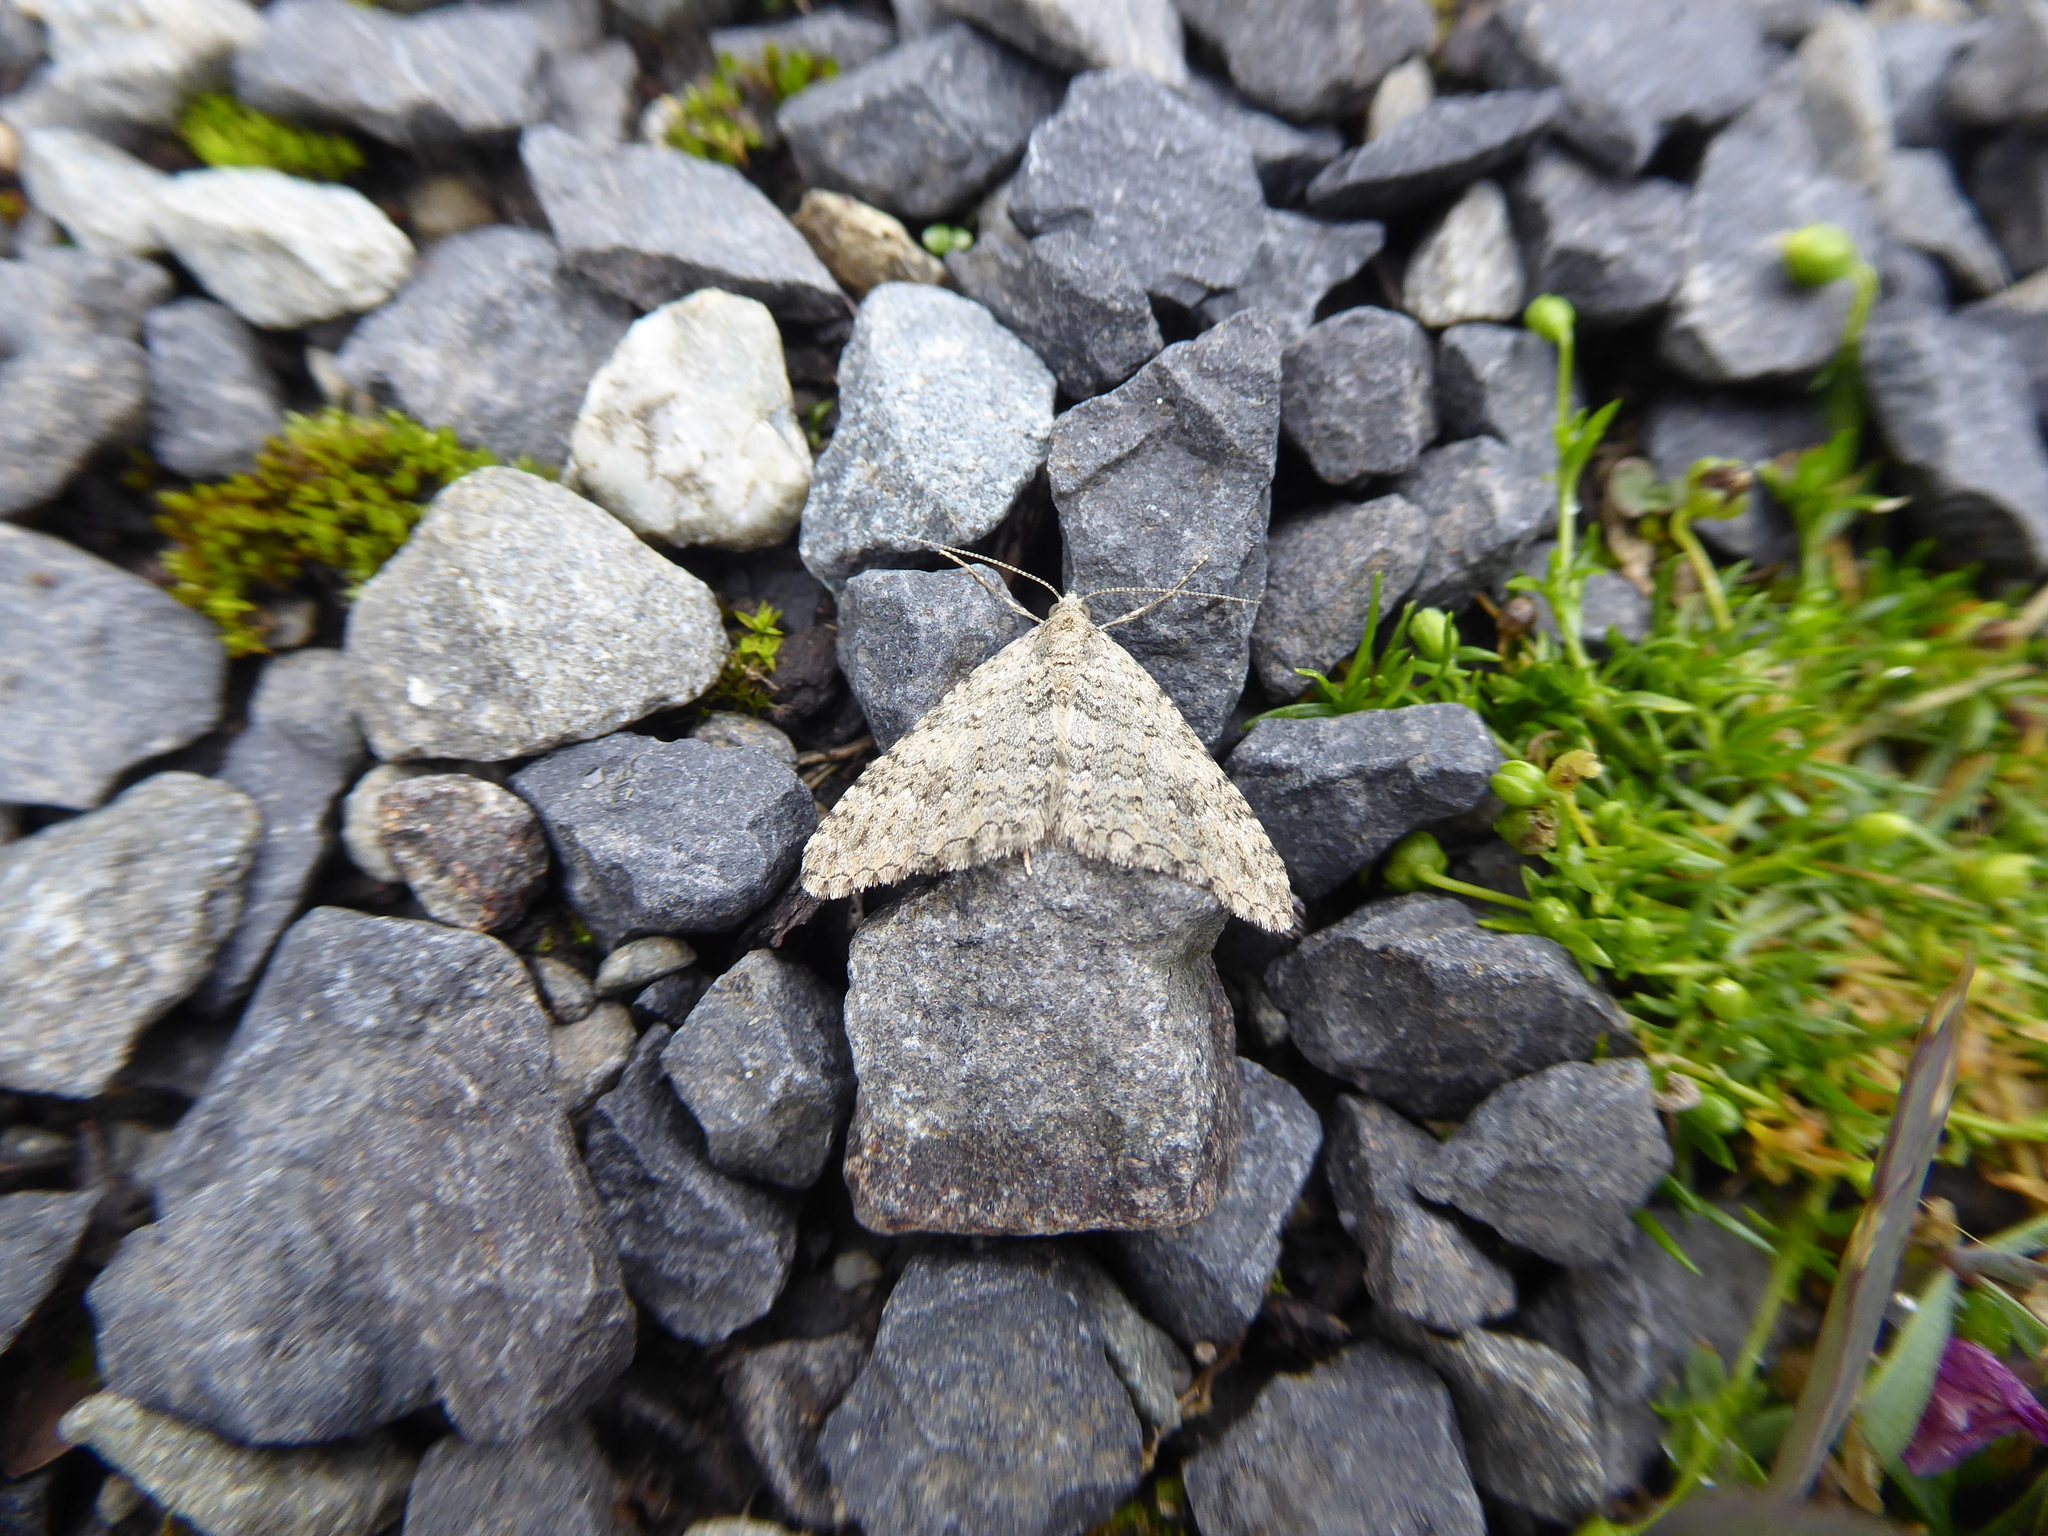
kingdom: Animalia
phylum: Arthropoda
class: Insecta
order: Lepidoptera
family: Geometridae
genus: Helastia
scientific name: Helastia corcularia
